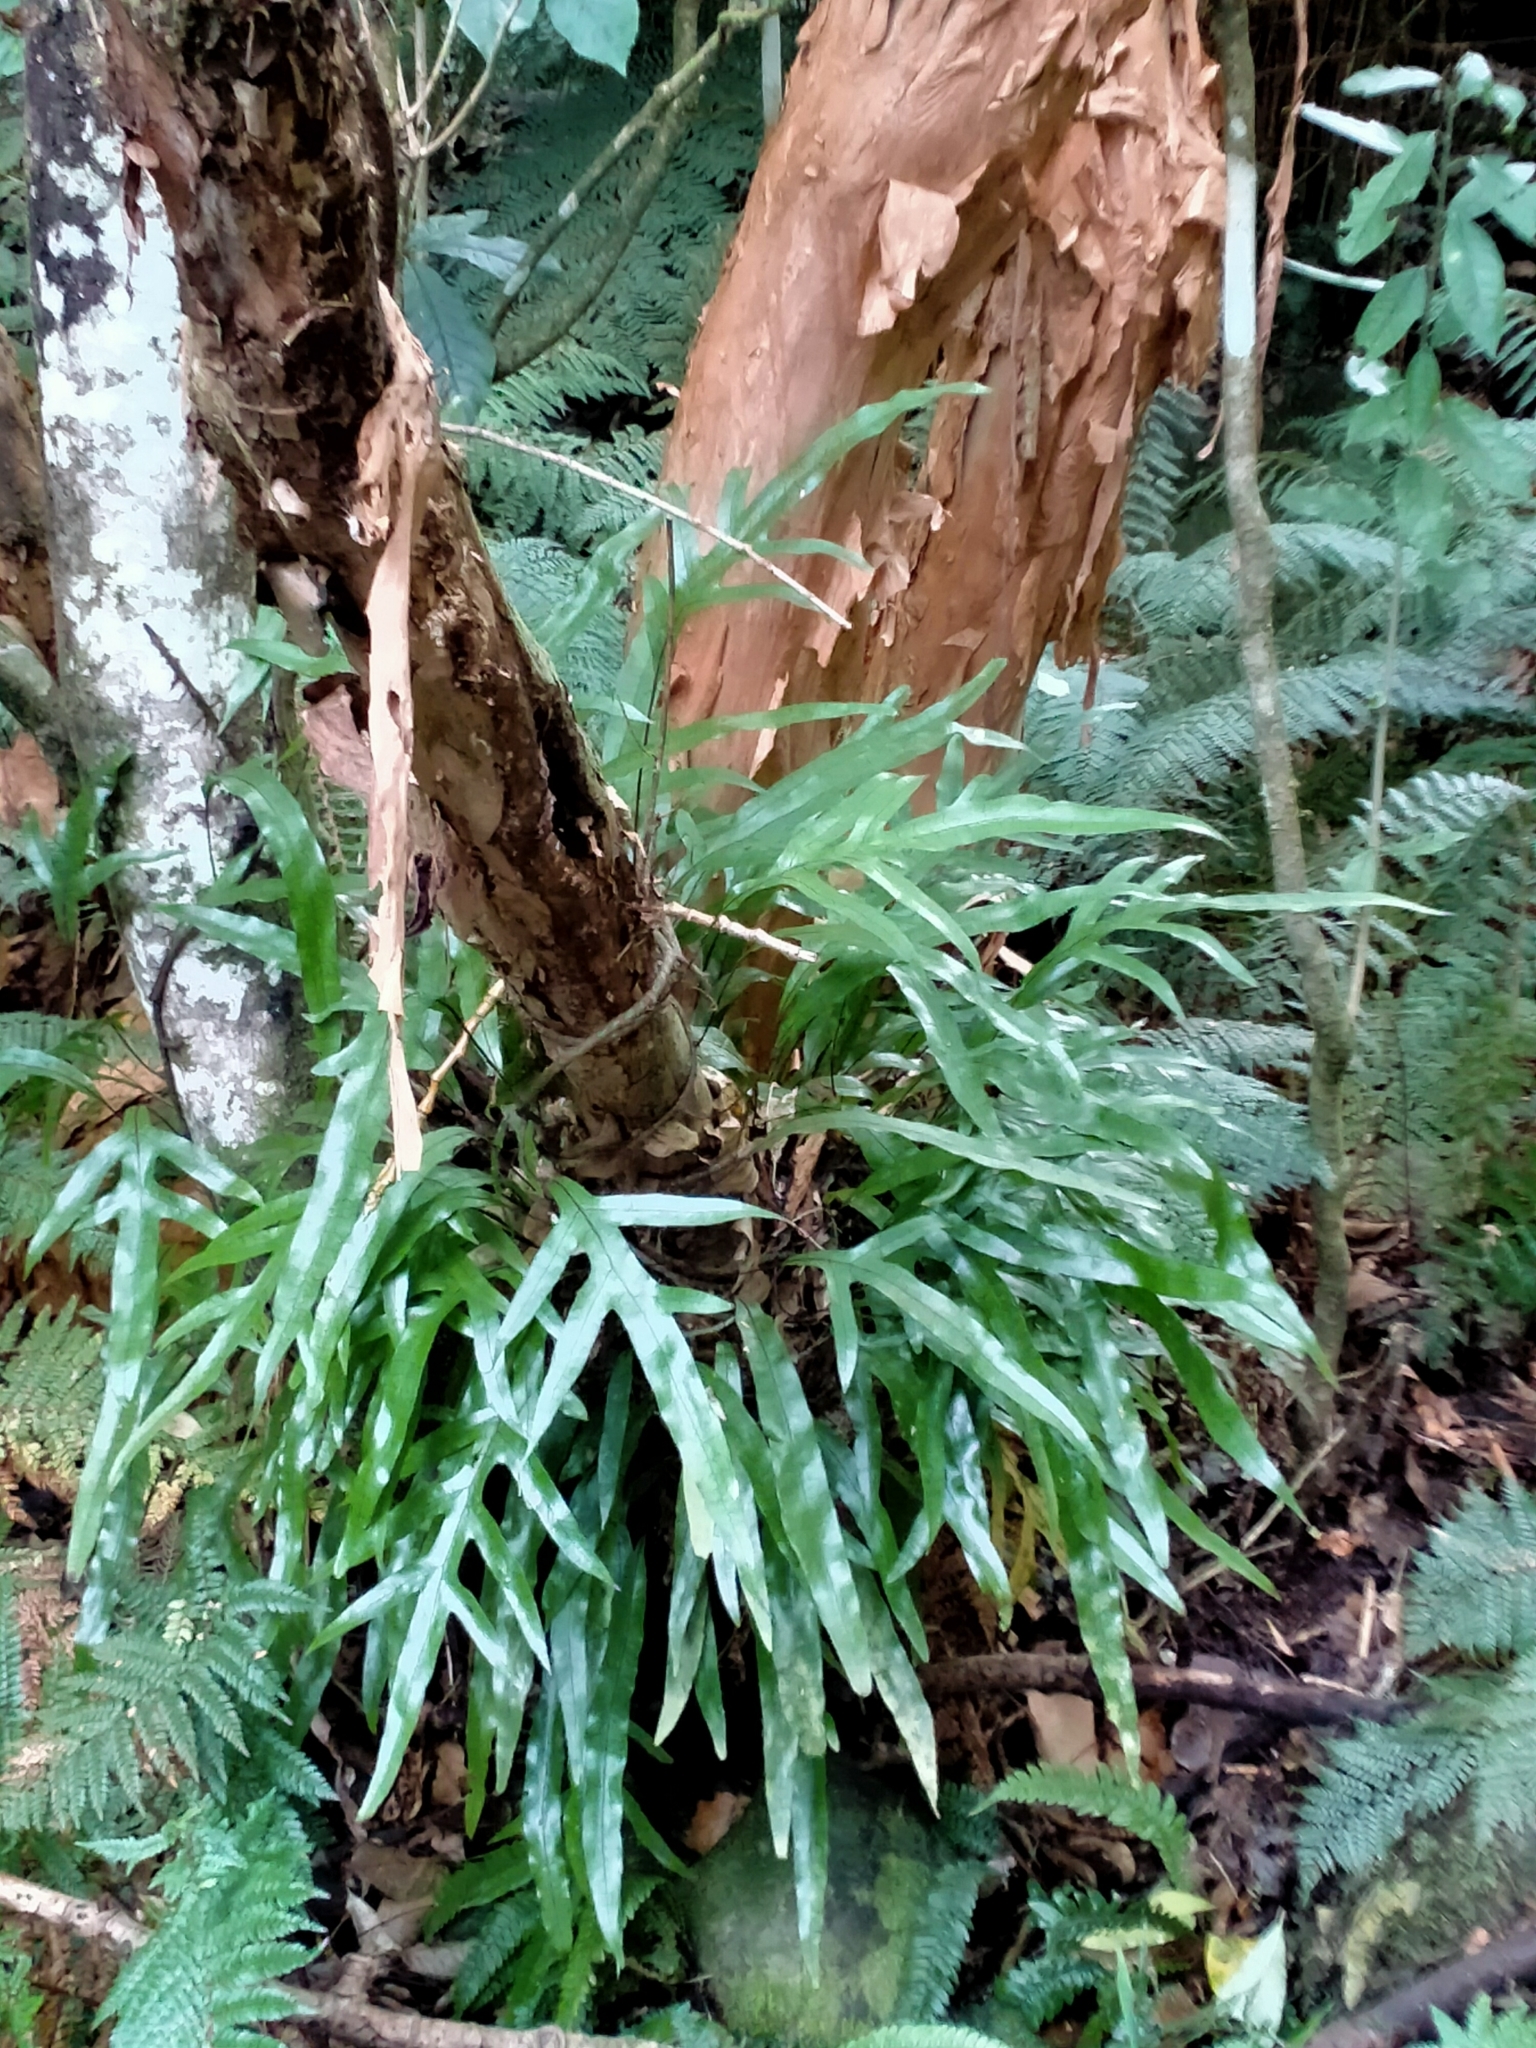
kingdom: Plantae
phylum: Tracheophyta
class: Polypodiopsida
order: Polypodiales
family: Polypodiaceae
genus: Lecanopteris
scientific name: Lecanopteris pustulata
